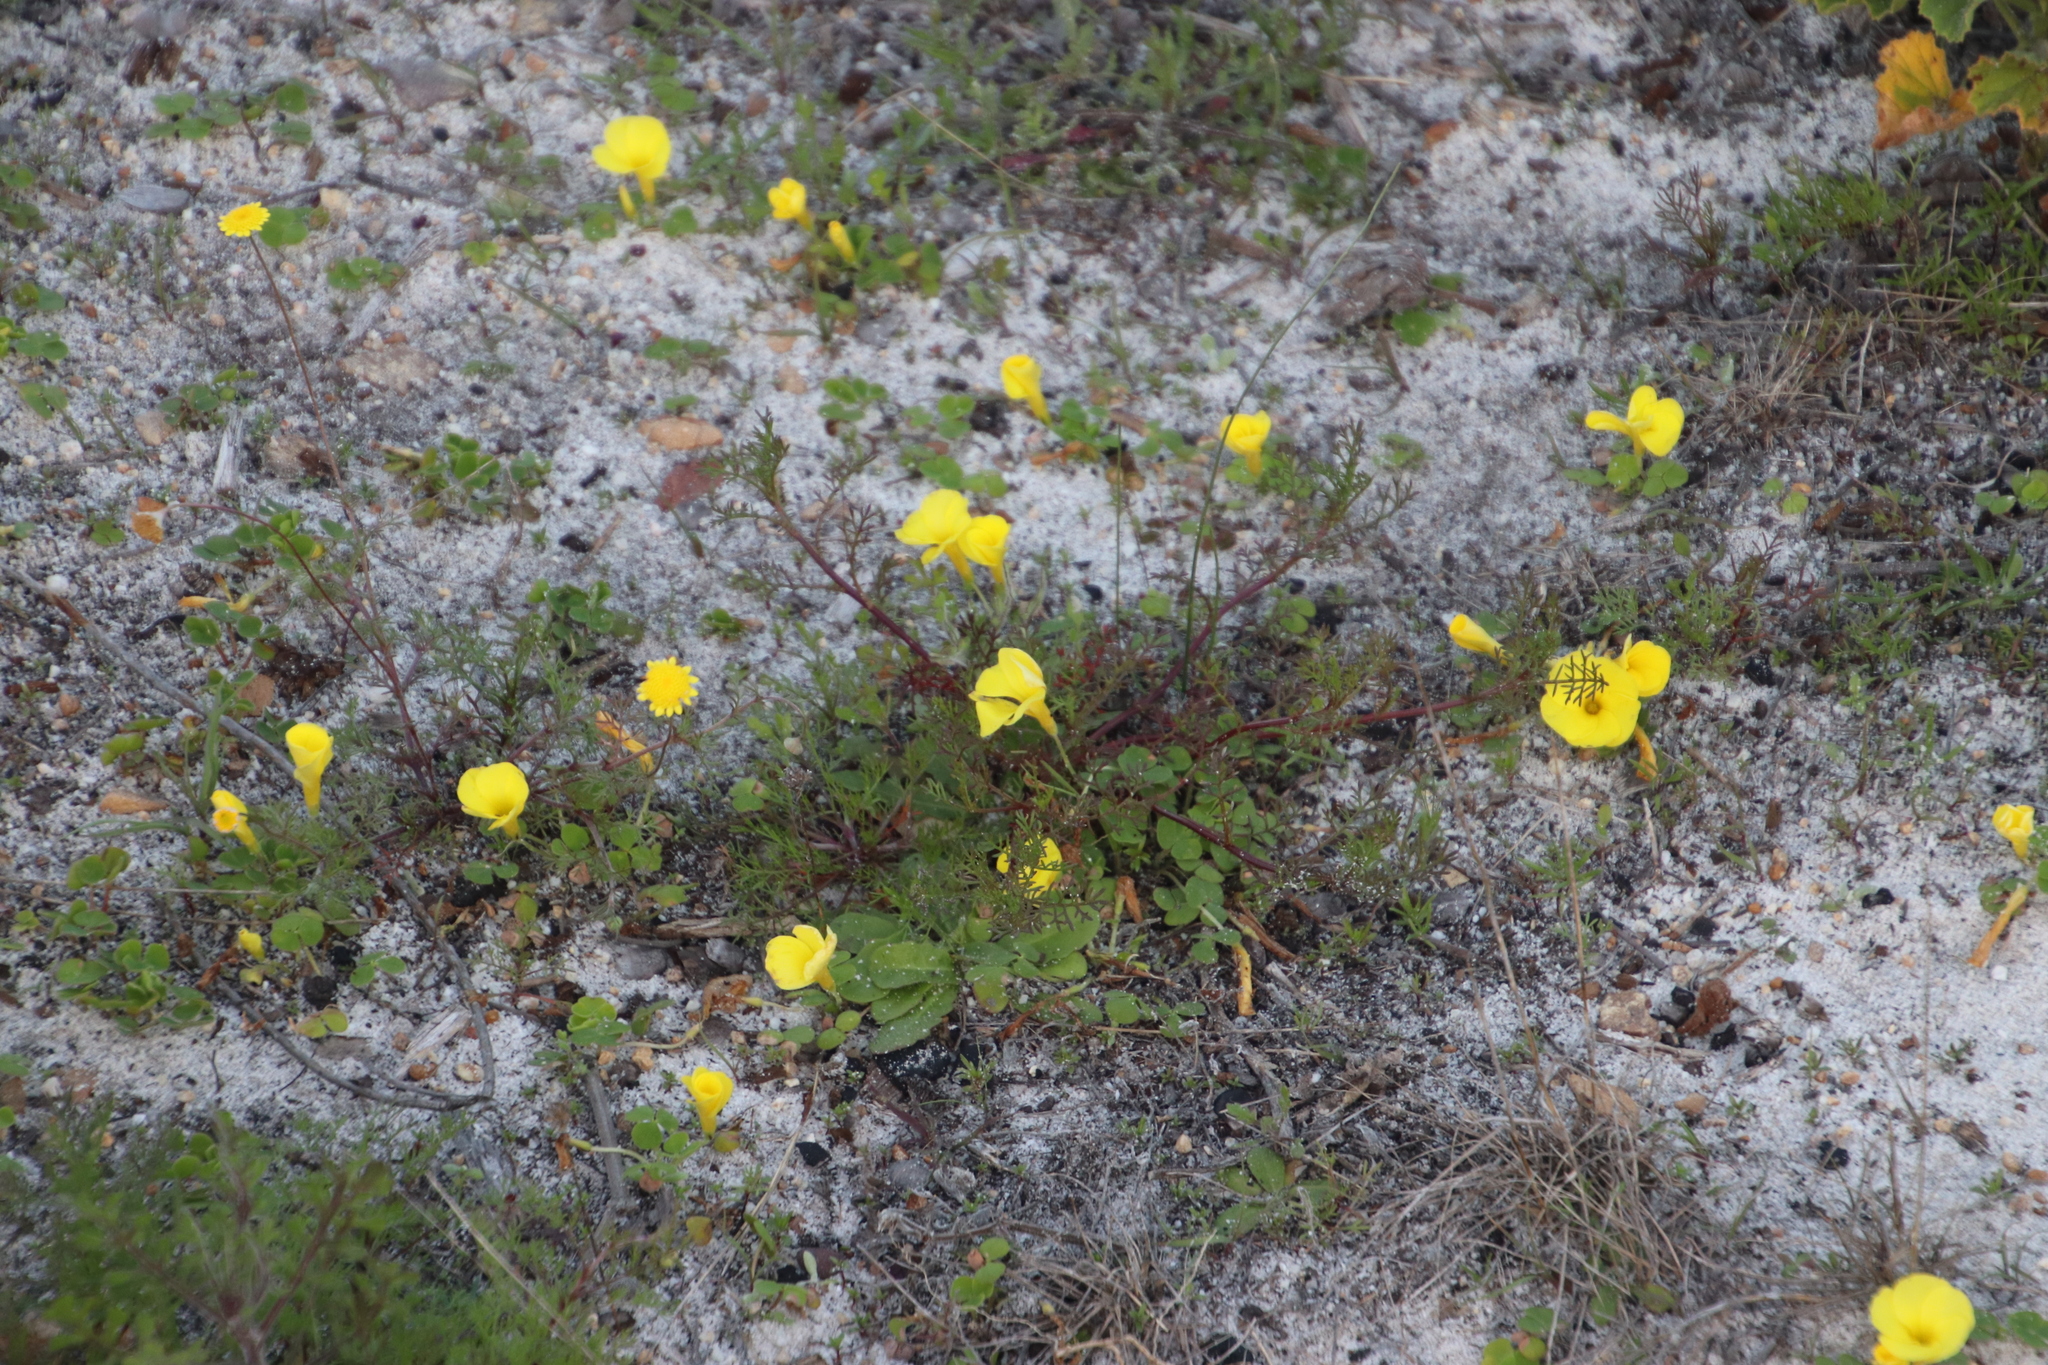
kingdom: Plantae
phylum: Tracheophyta
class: Magnoliopsida
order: Oxalidales
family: Oxalidaceae
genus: Oxalis
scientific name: Oxalis luteola
